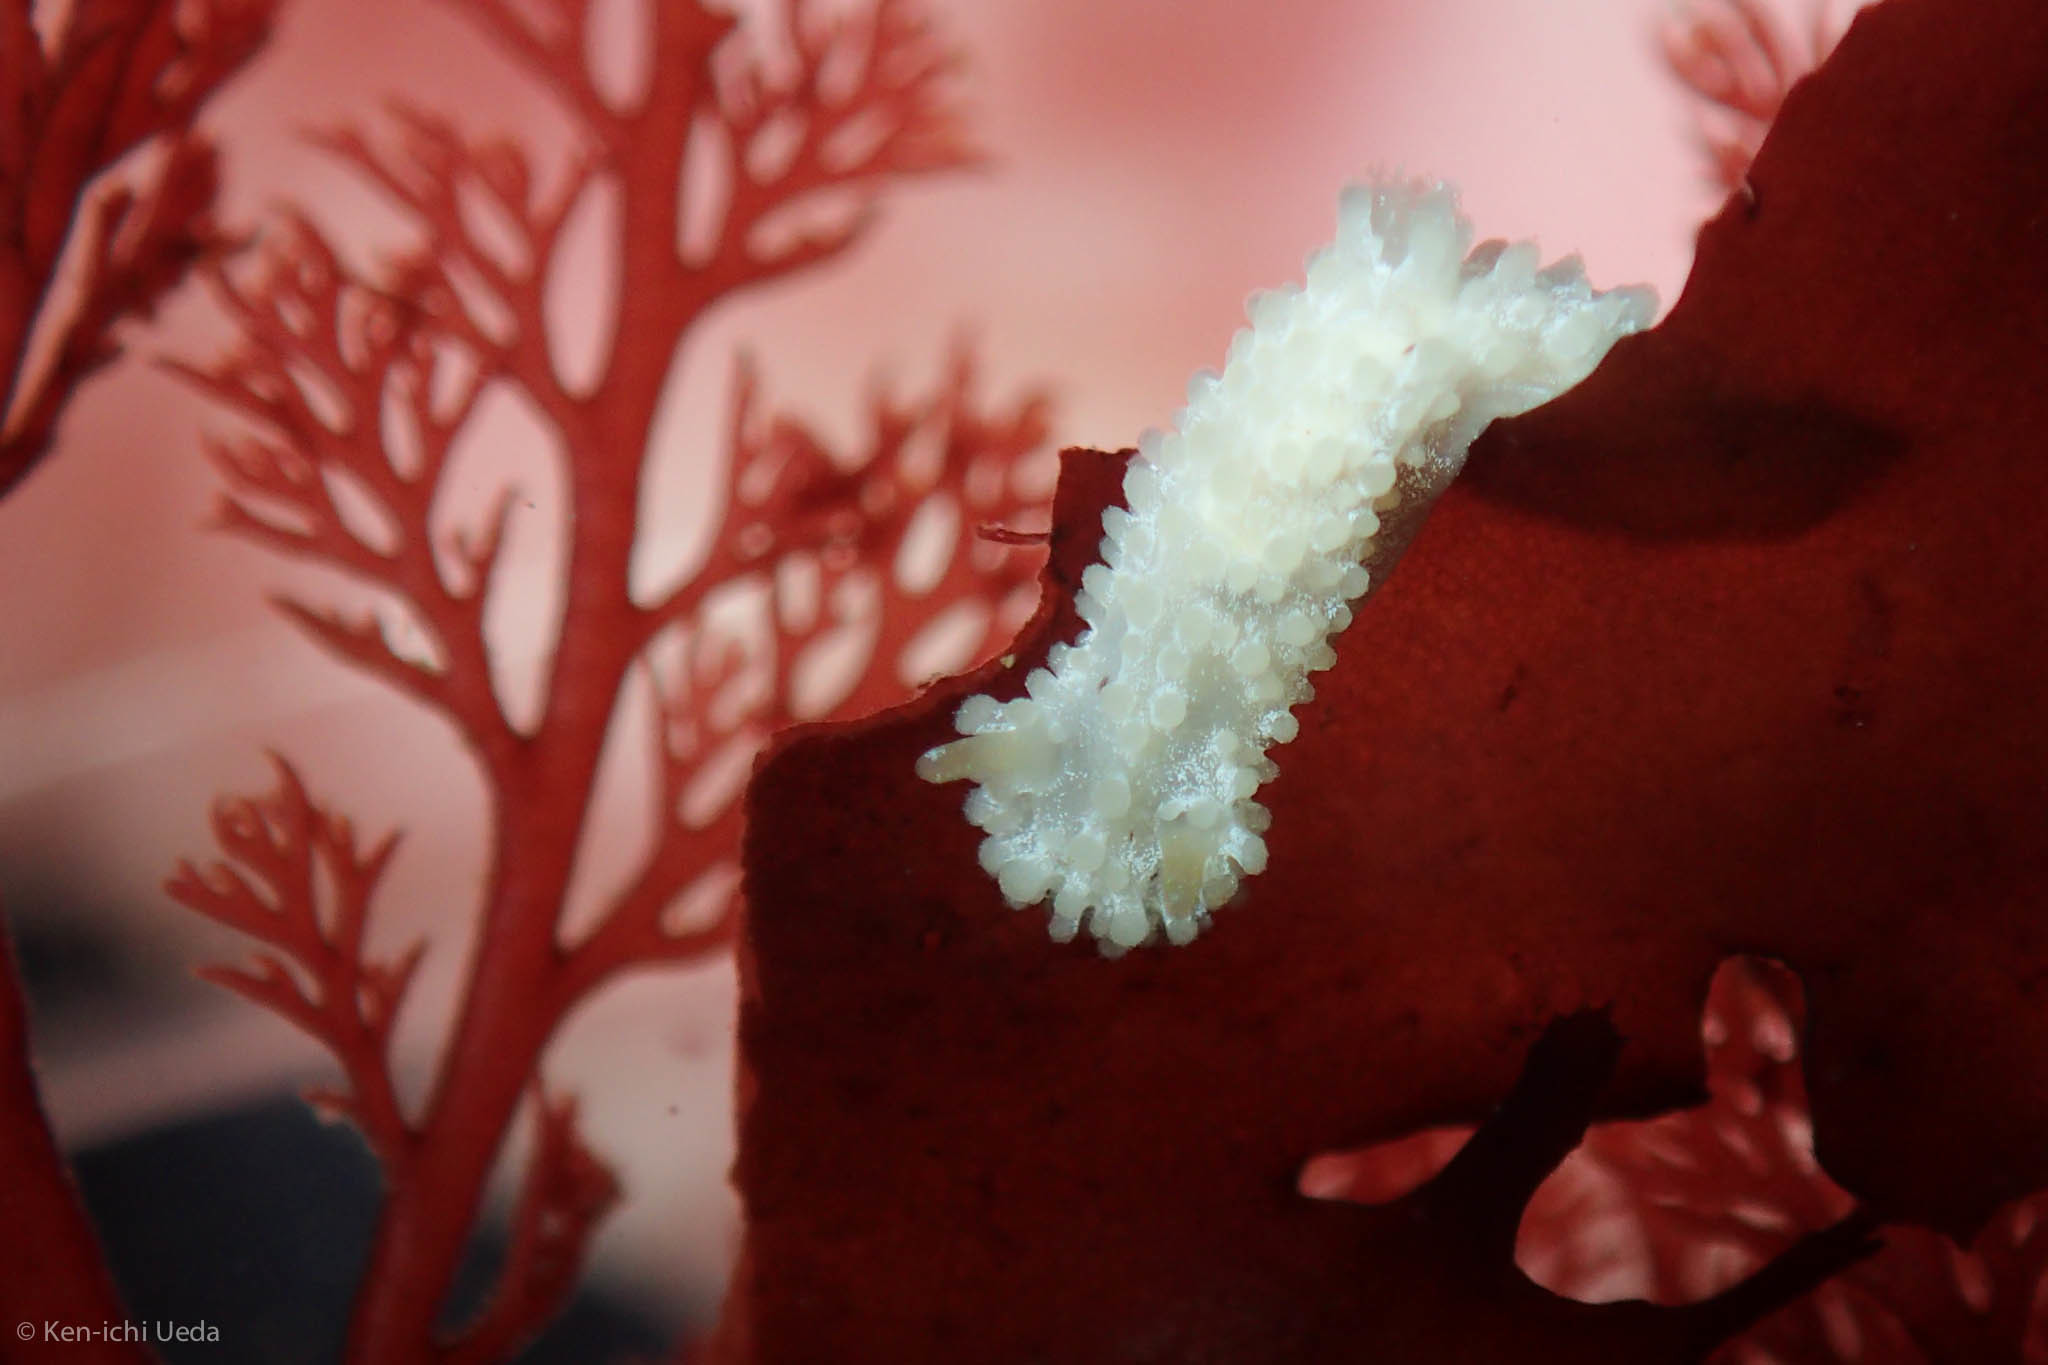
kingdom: Animalia
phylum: Mollusca
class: Gastropoda
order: Nudibranchia
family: Aegiridae
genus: Aegires
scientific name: Aegires albopunctatus
